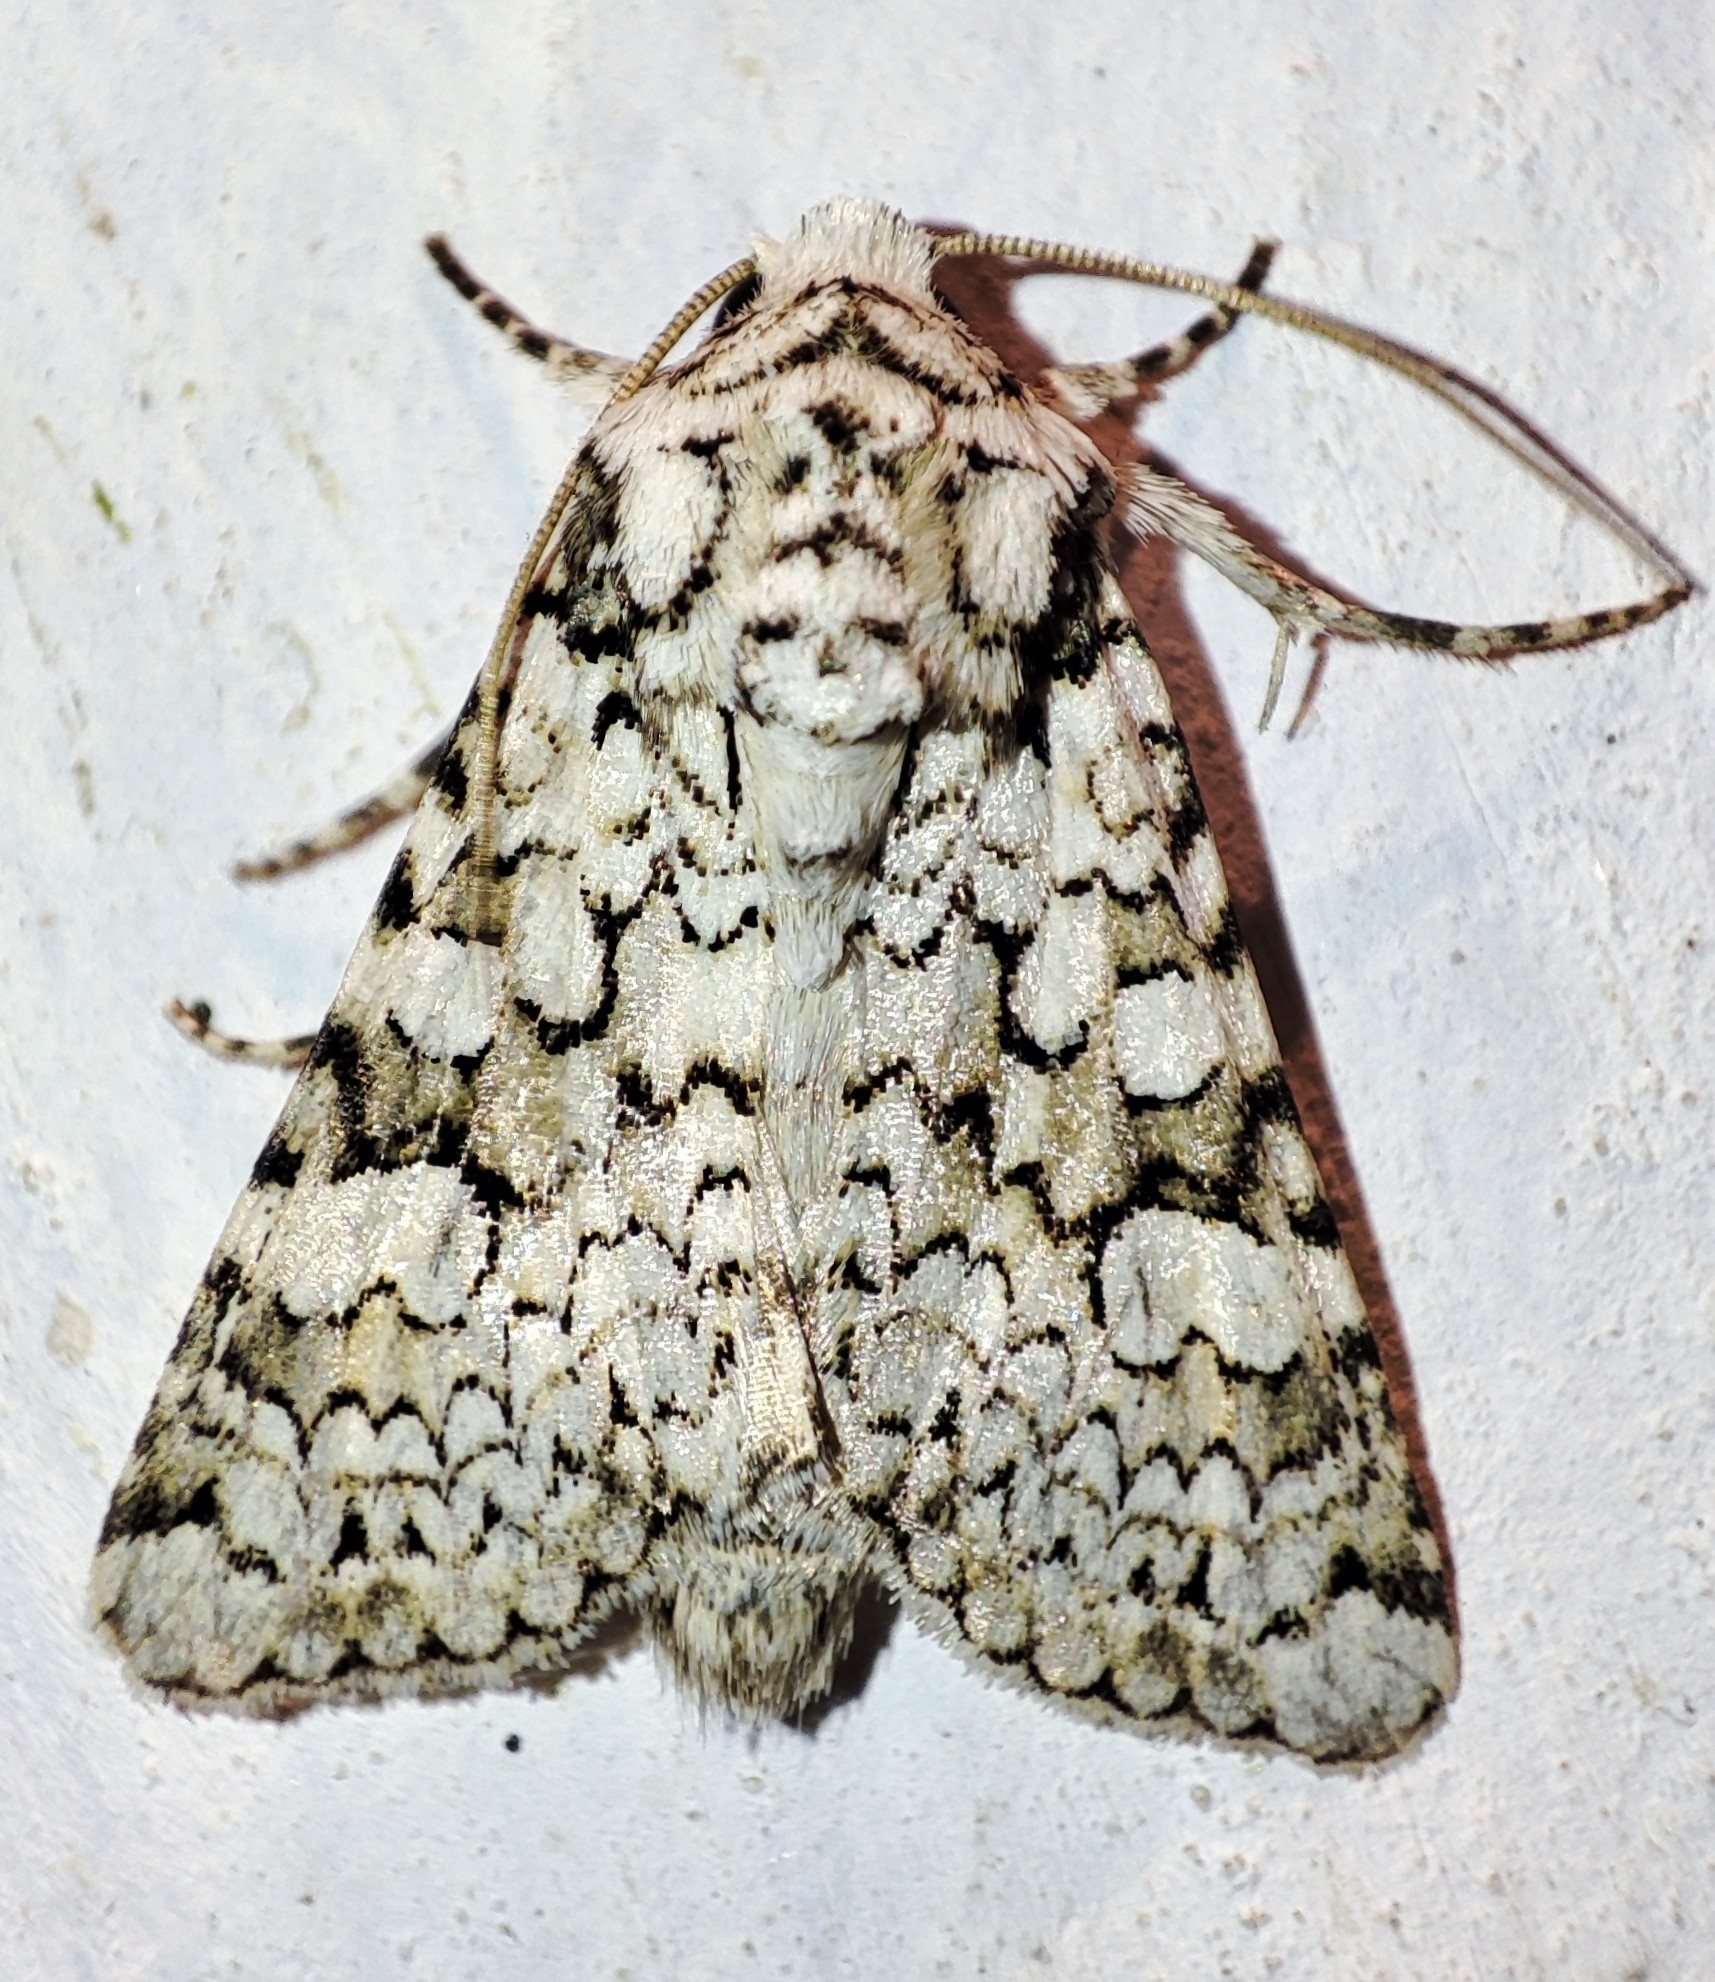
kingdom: Animalia
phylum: Arthropoda
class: Insecta
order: Lepidoptera
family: Noctuidae
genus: Hecatera
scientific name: Hecatera cappa
